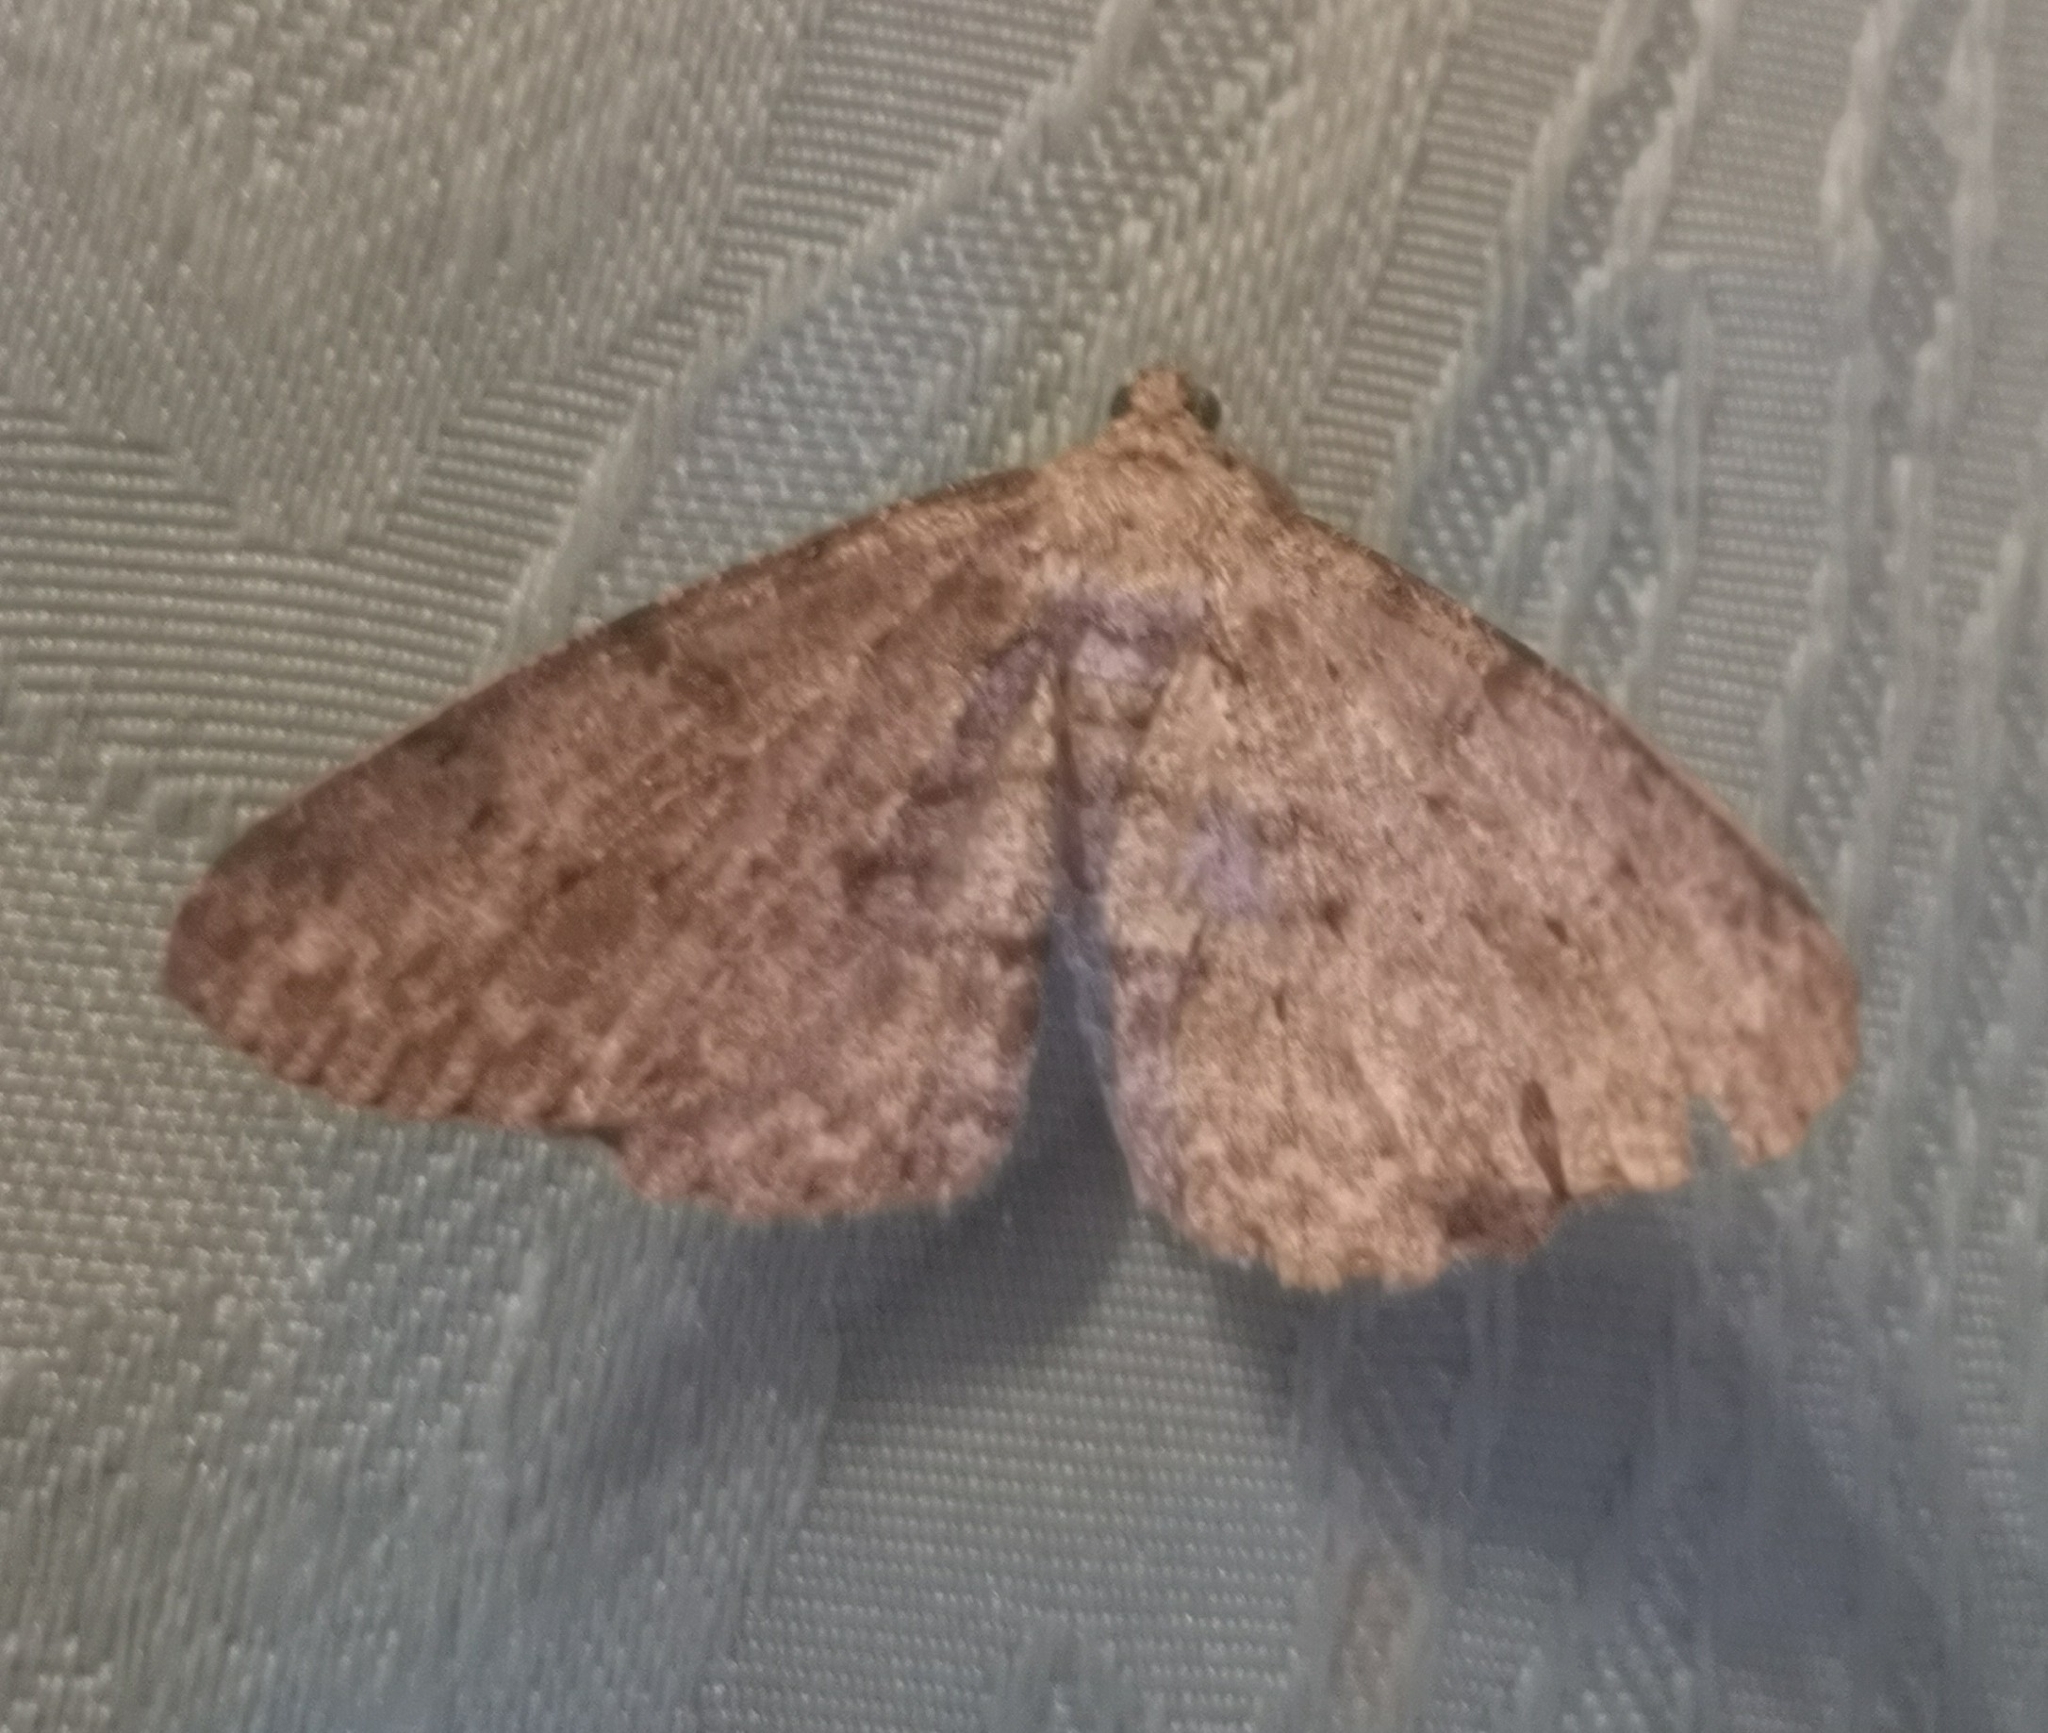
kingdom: Animalia
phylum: Arthropoda
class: Insecta
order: Lepidoptera
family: Geometridae
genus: Hypomecis
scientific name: Hypomecis punctinalis
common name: Pale oak beauty
